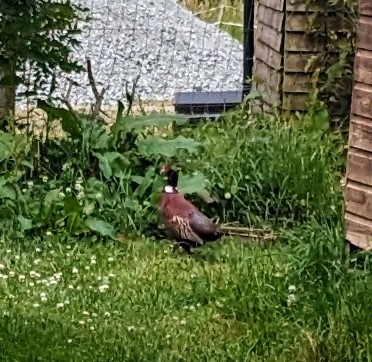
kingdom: Animalia
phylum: Chordata
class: Aves
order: Galliformes
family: Phasianidae
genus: Phasianus
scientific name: Phasianus colchicus
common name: Common pheasant
